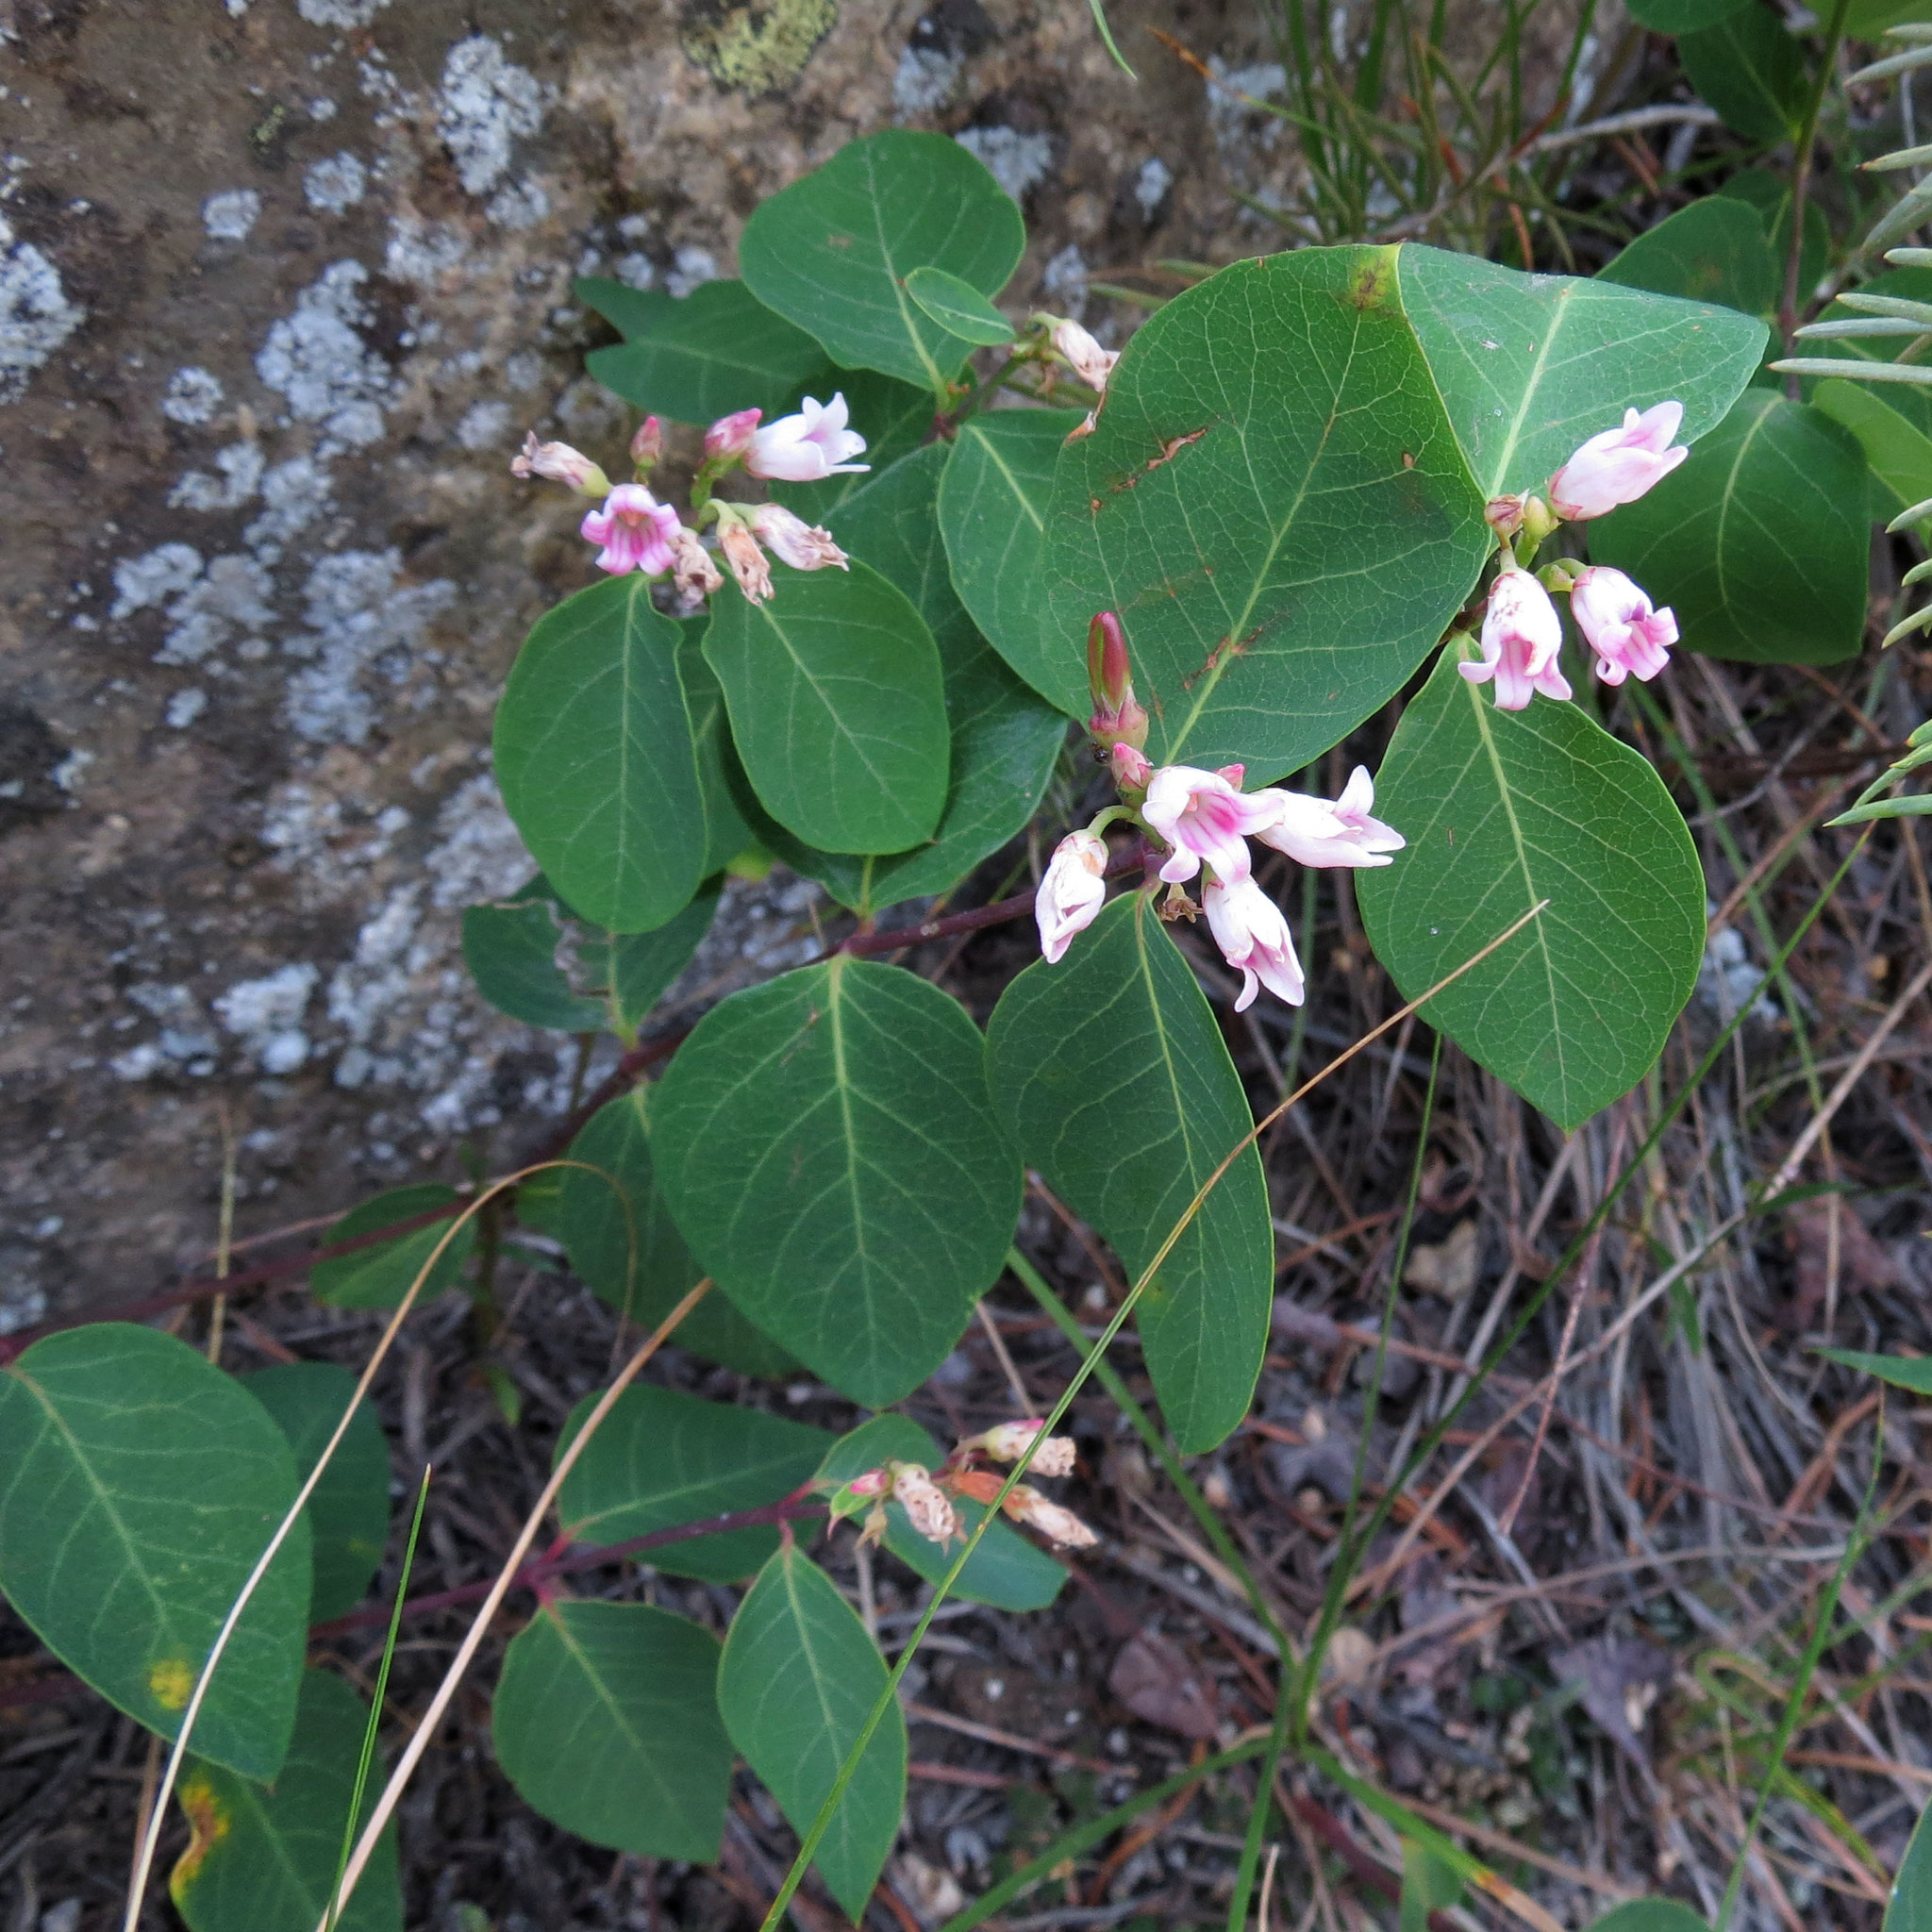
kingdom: Plantae
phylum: Tracheophyta
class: Magnoliopsida
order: Gentianales
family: Apocynaceae
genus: Apocynum
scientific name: Apocynum androsaemifolium
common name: Spreading dogbane
